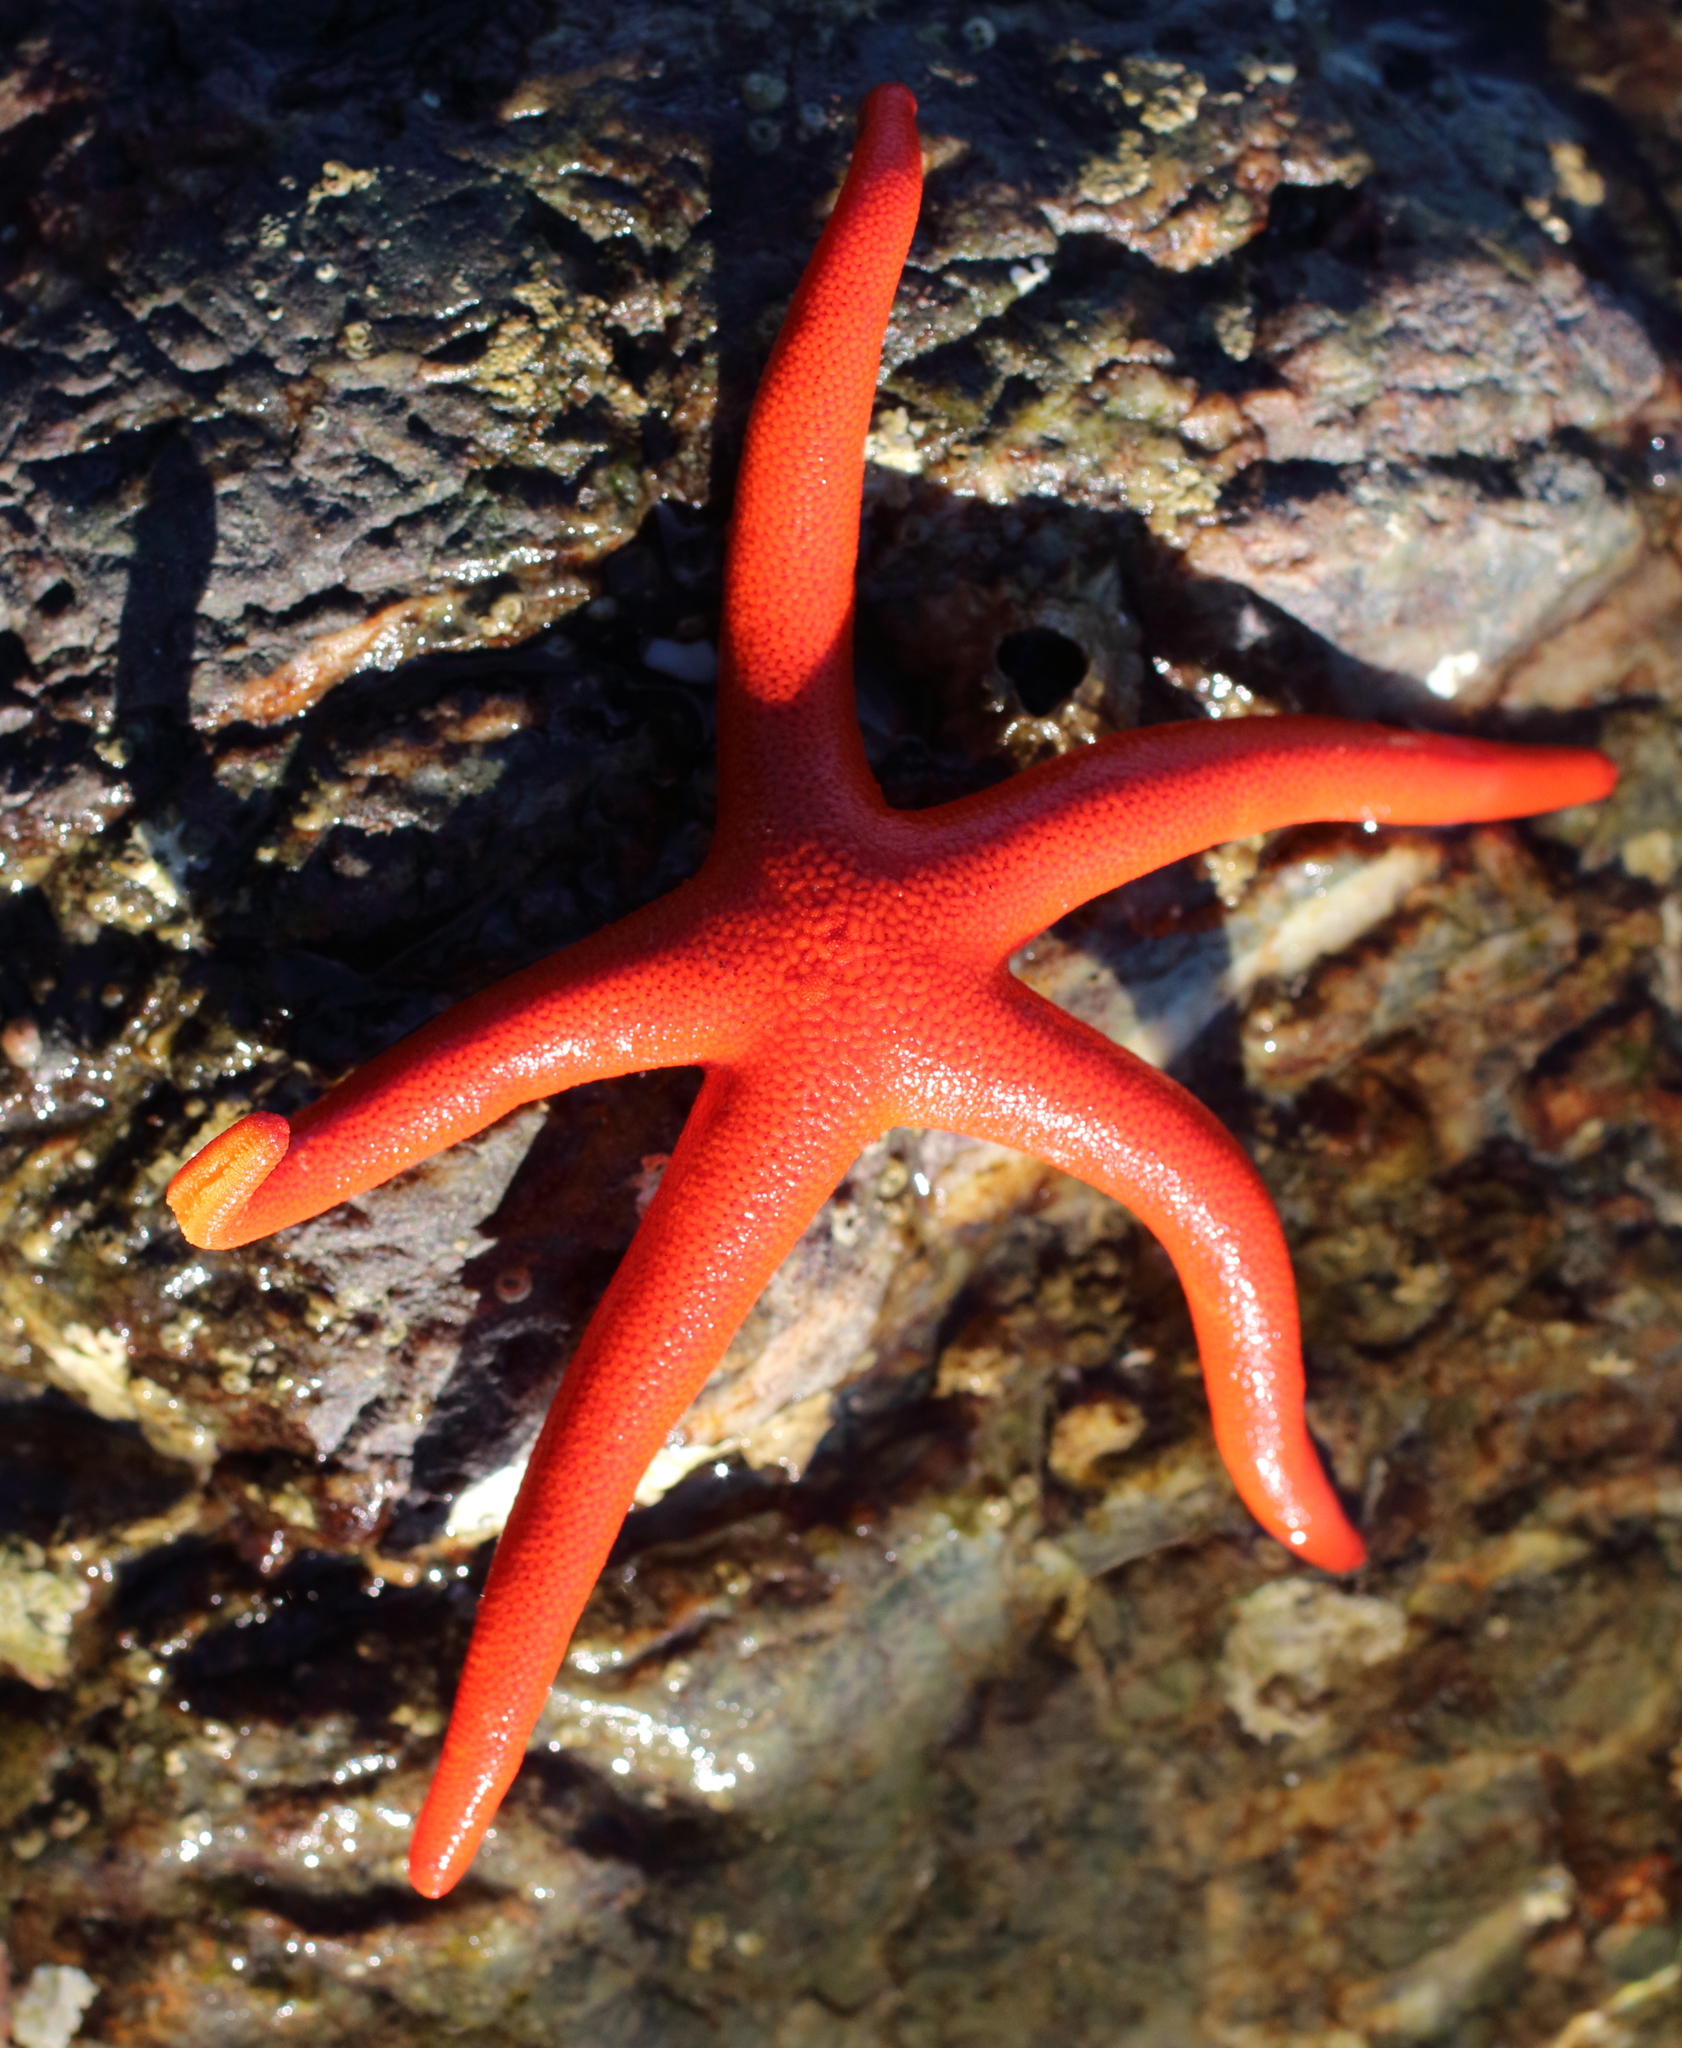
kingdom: Animalia
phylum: Echinodermata
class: Asteroidea
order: Spinulosida
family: Echinasteridae
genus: Henricia
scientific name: Henricia leviuscula
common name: Pacific blood star
